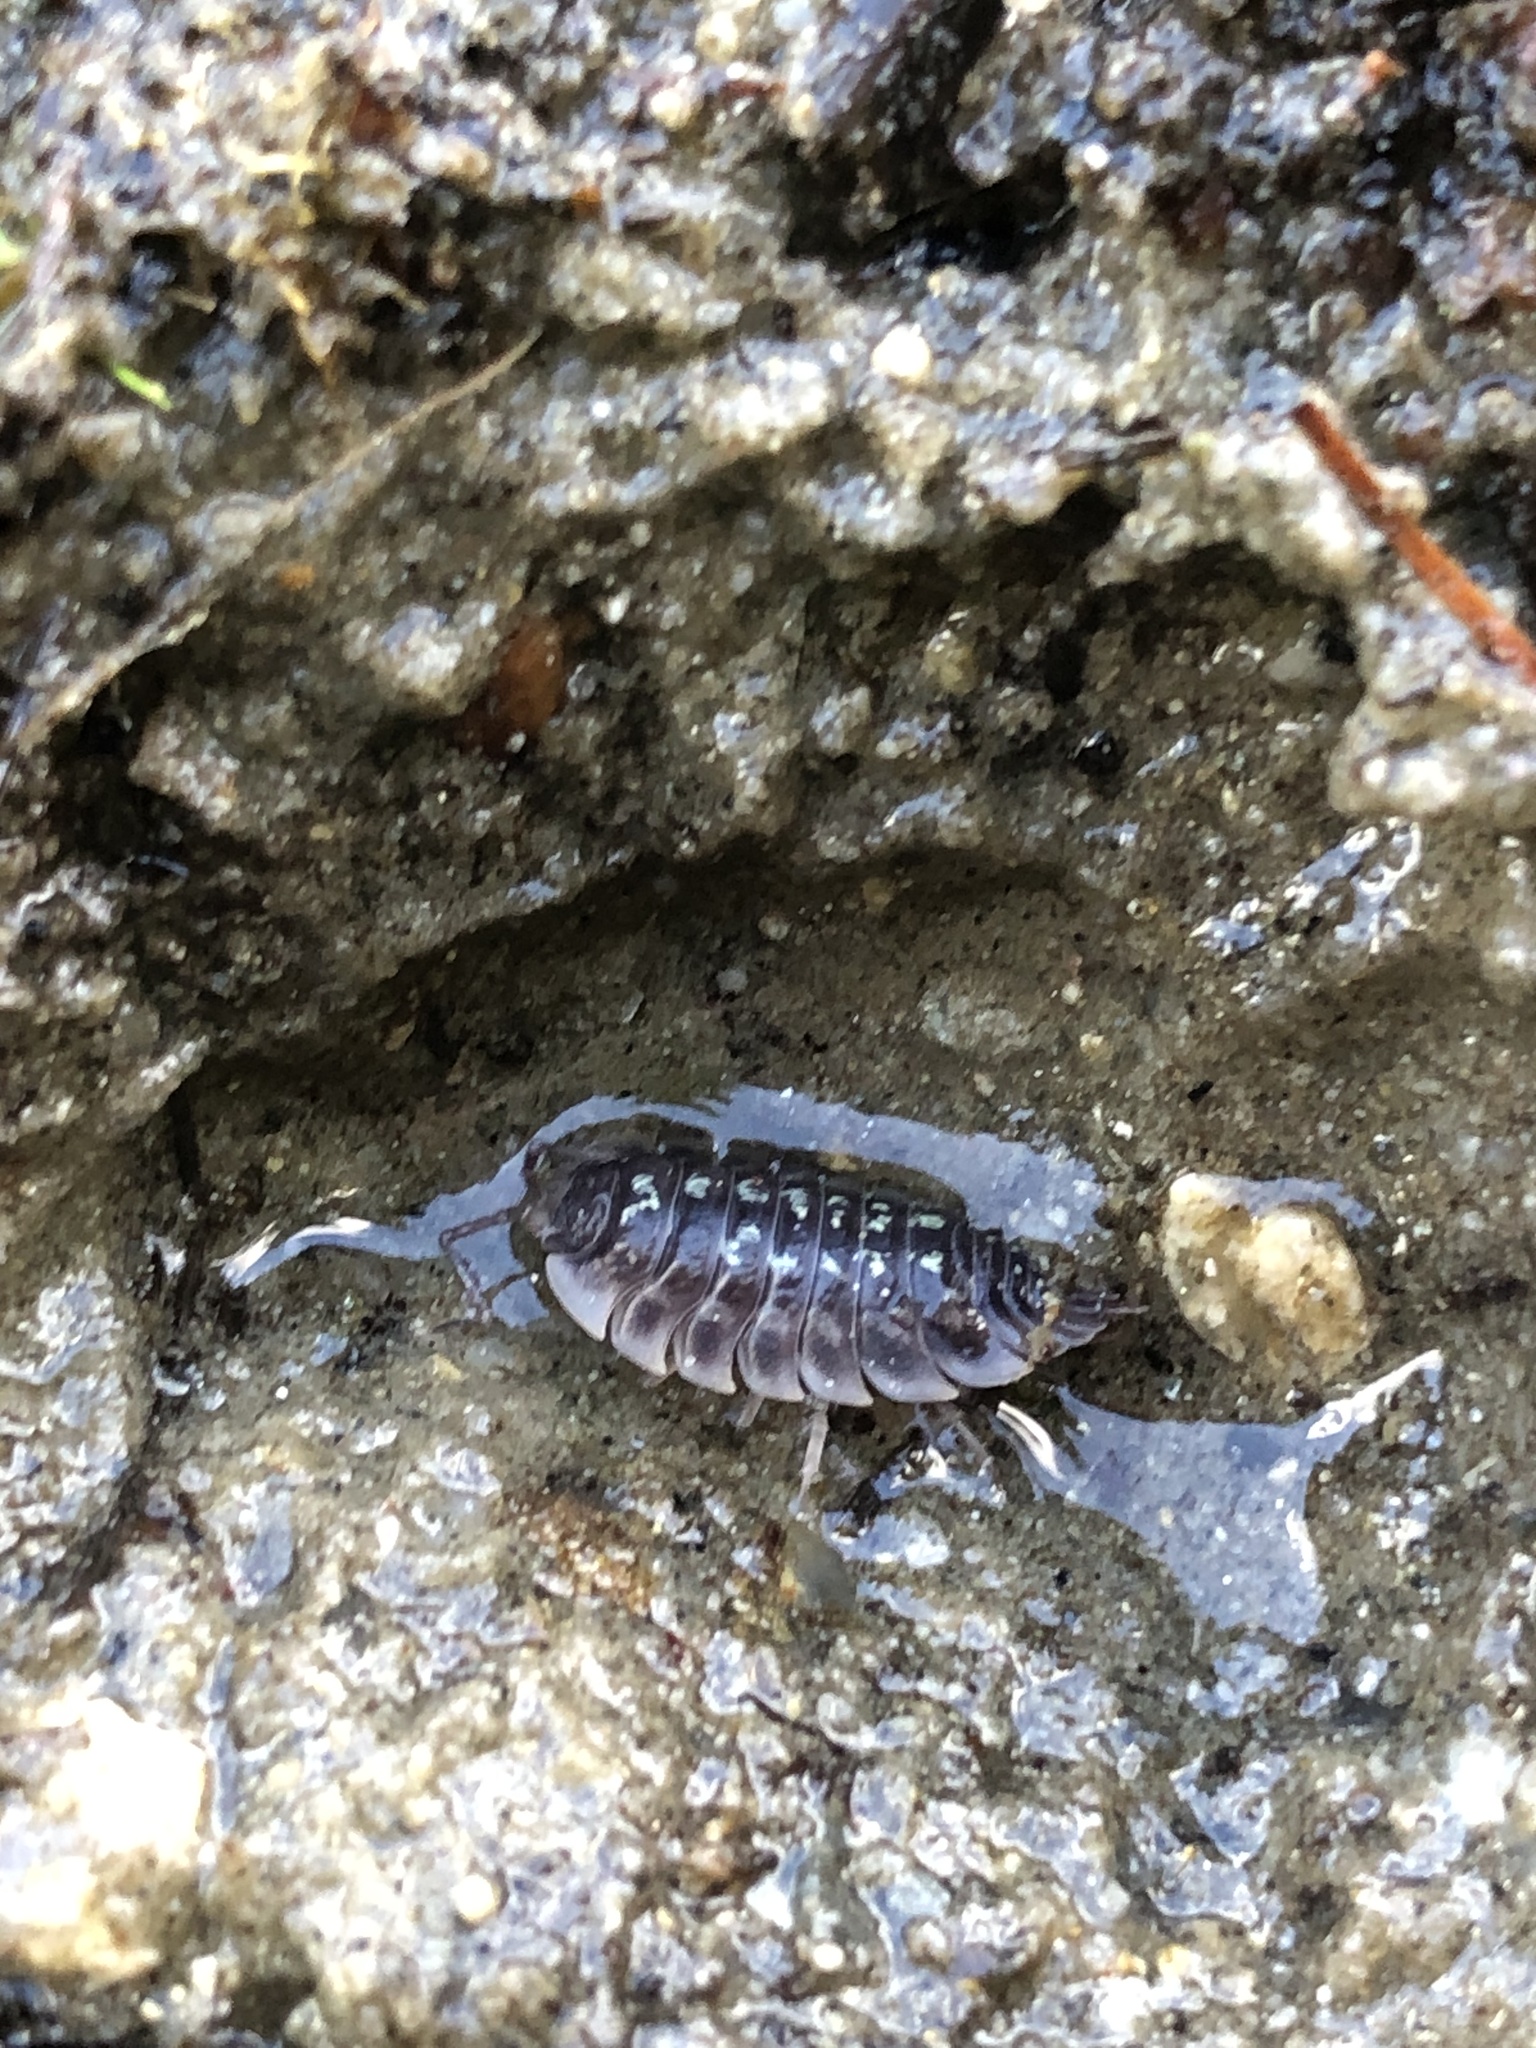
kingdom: Animalia
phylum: Arthropoda
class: Malacostraca
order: Isopoda
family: Oniscidae
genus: Oniscus
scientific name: Oniscus asellus
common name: Common shiny woodlouse
